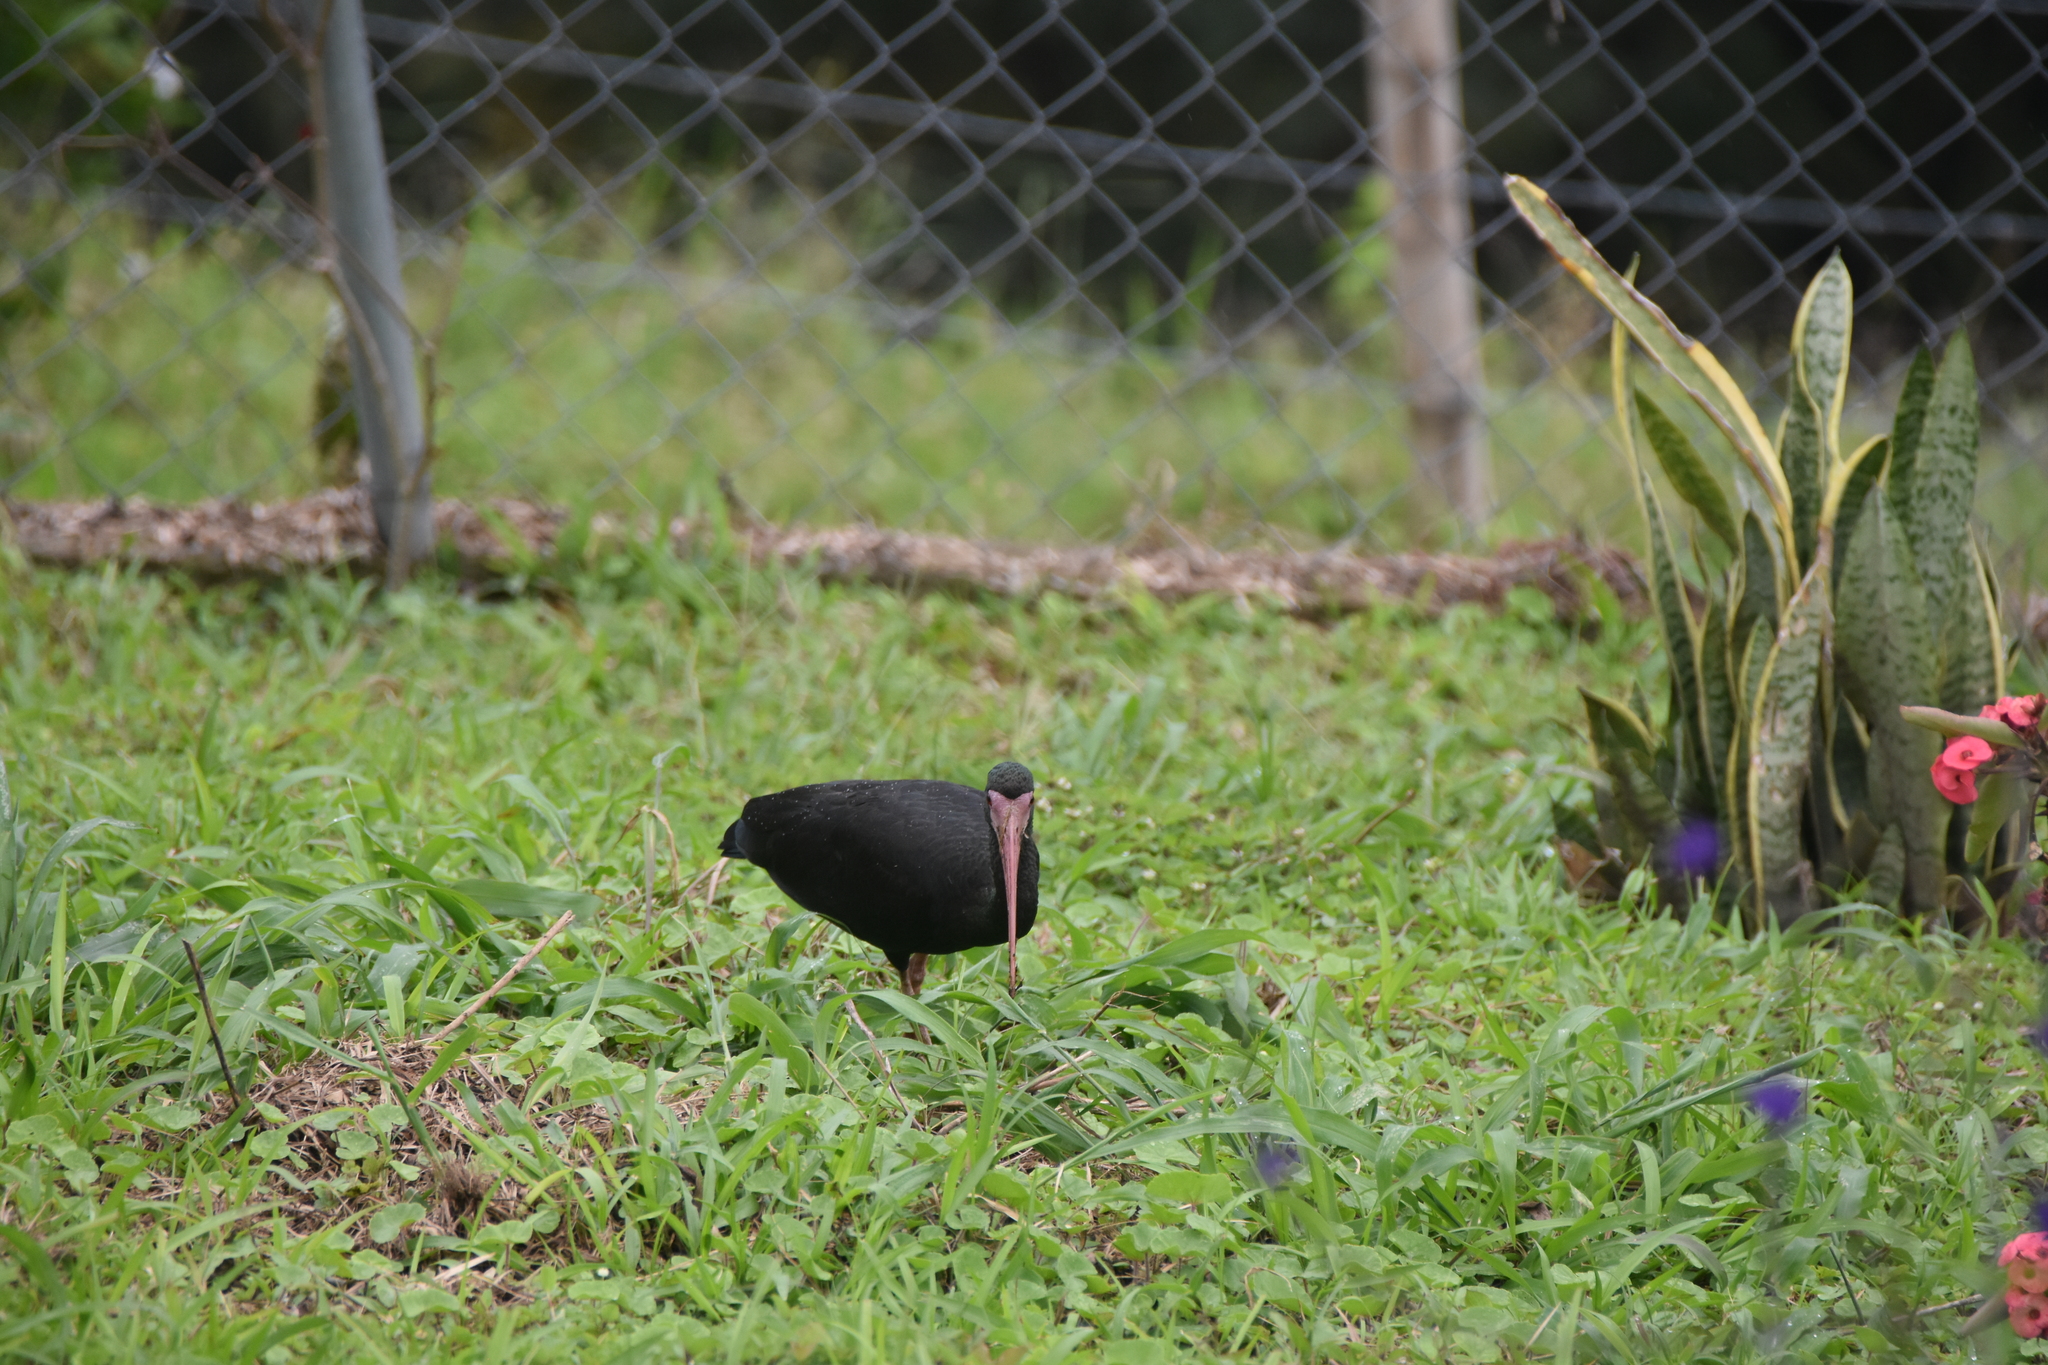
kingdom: Animalia
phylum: Chordata
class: Aves
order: Pelecaniformes
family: Threskiornithidae
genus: Phimosus
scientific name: Phimosus infuscatus
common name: Bare-faced ibis
